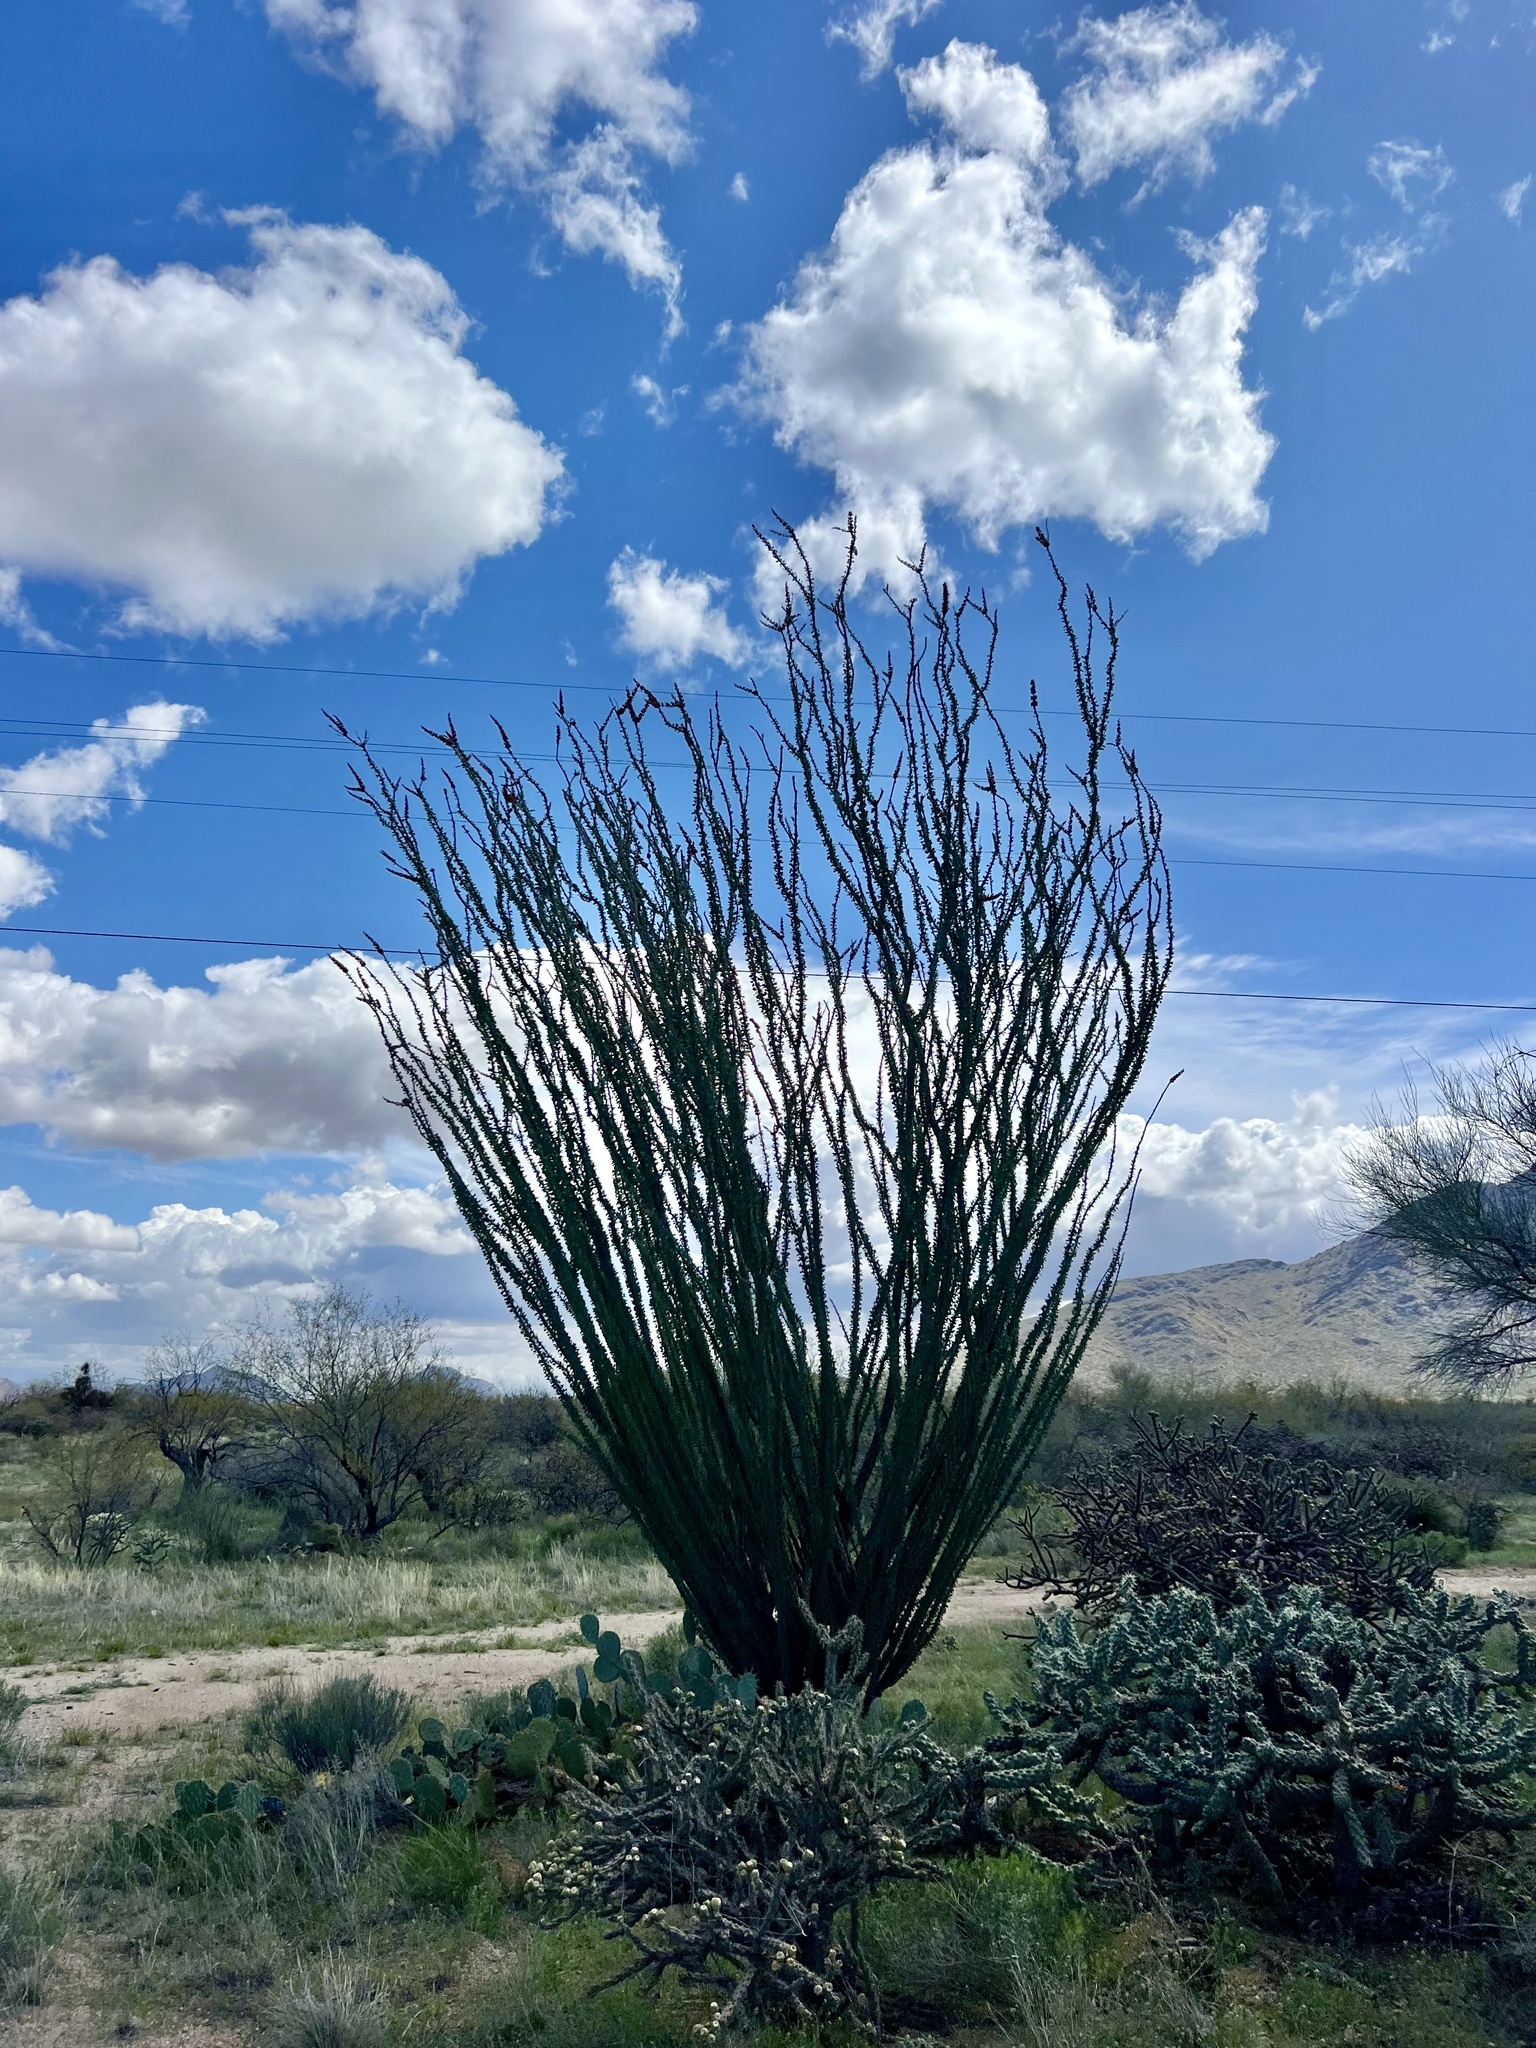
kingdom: Plantae
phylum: Tracheophyta
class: Magnoliopsida
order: Ericales
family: Fouquieriaceae
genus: Fouquieria
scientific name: Fouquieria splendens
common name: Vine-cactus
